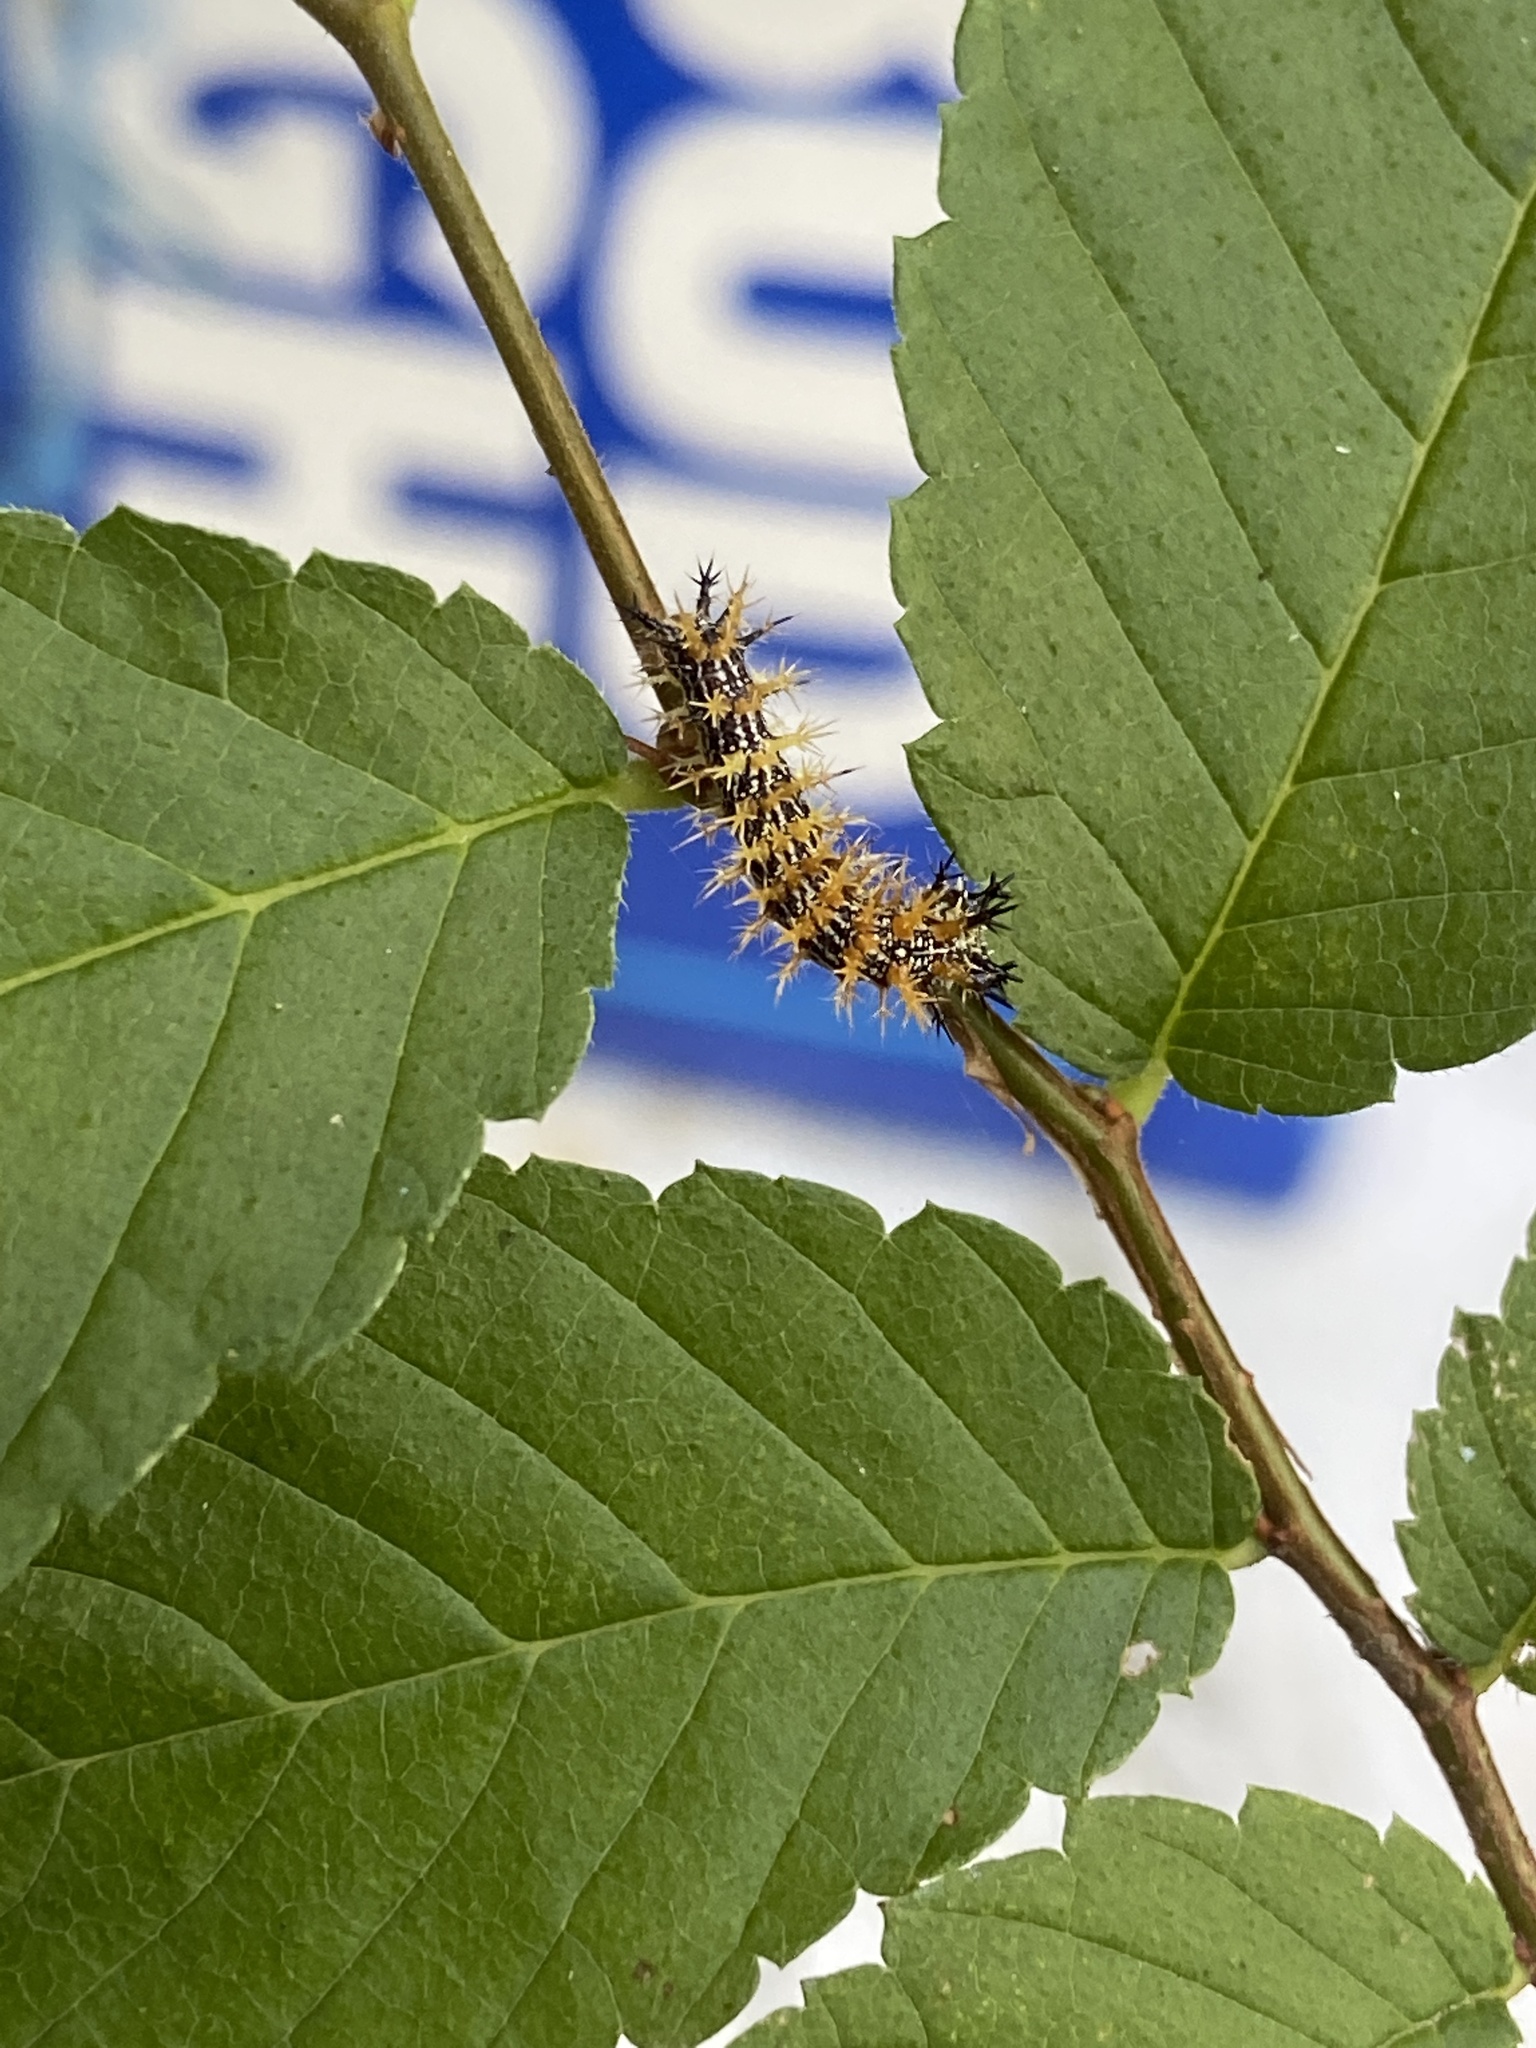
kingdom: Animalia
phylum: Arthropoda
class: Insecta
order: Lepidoptera
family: Nymphalidae
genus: Polygonia
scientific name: Polygonia interrogationis
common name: Question mark
